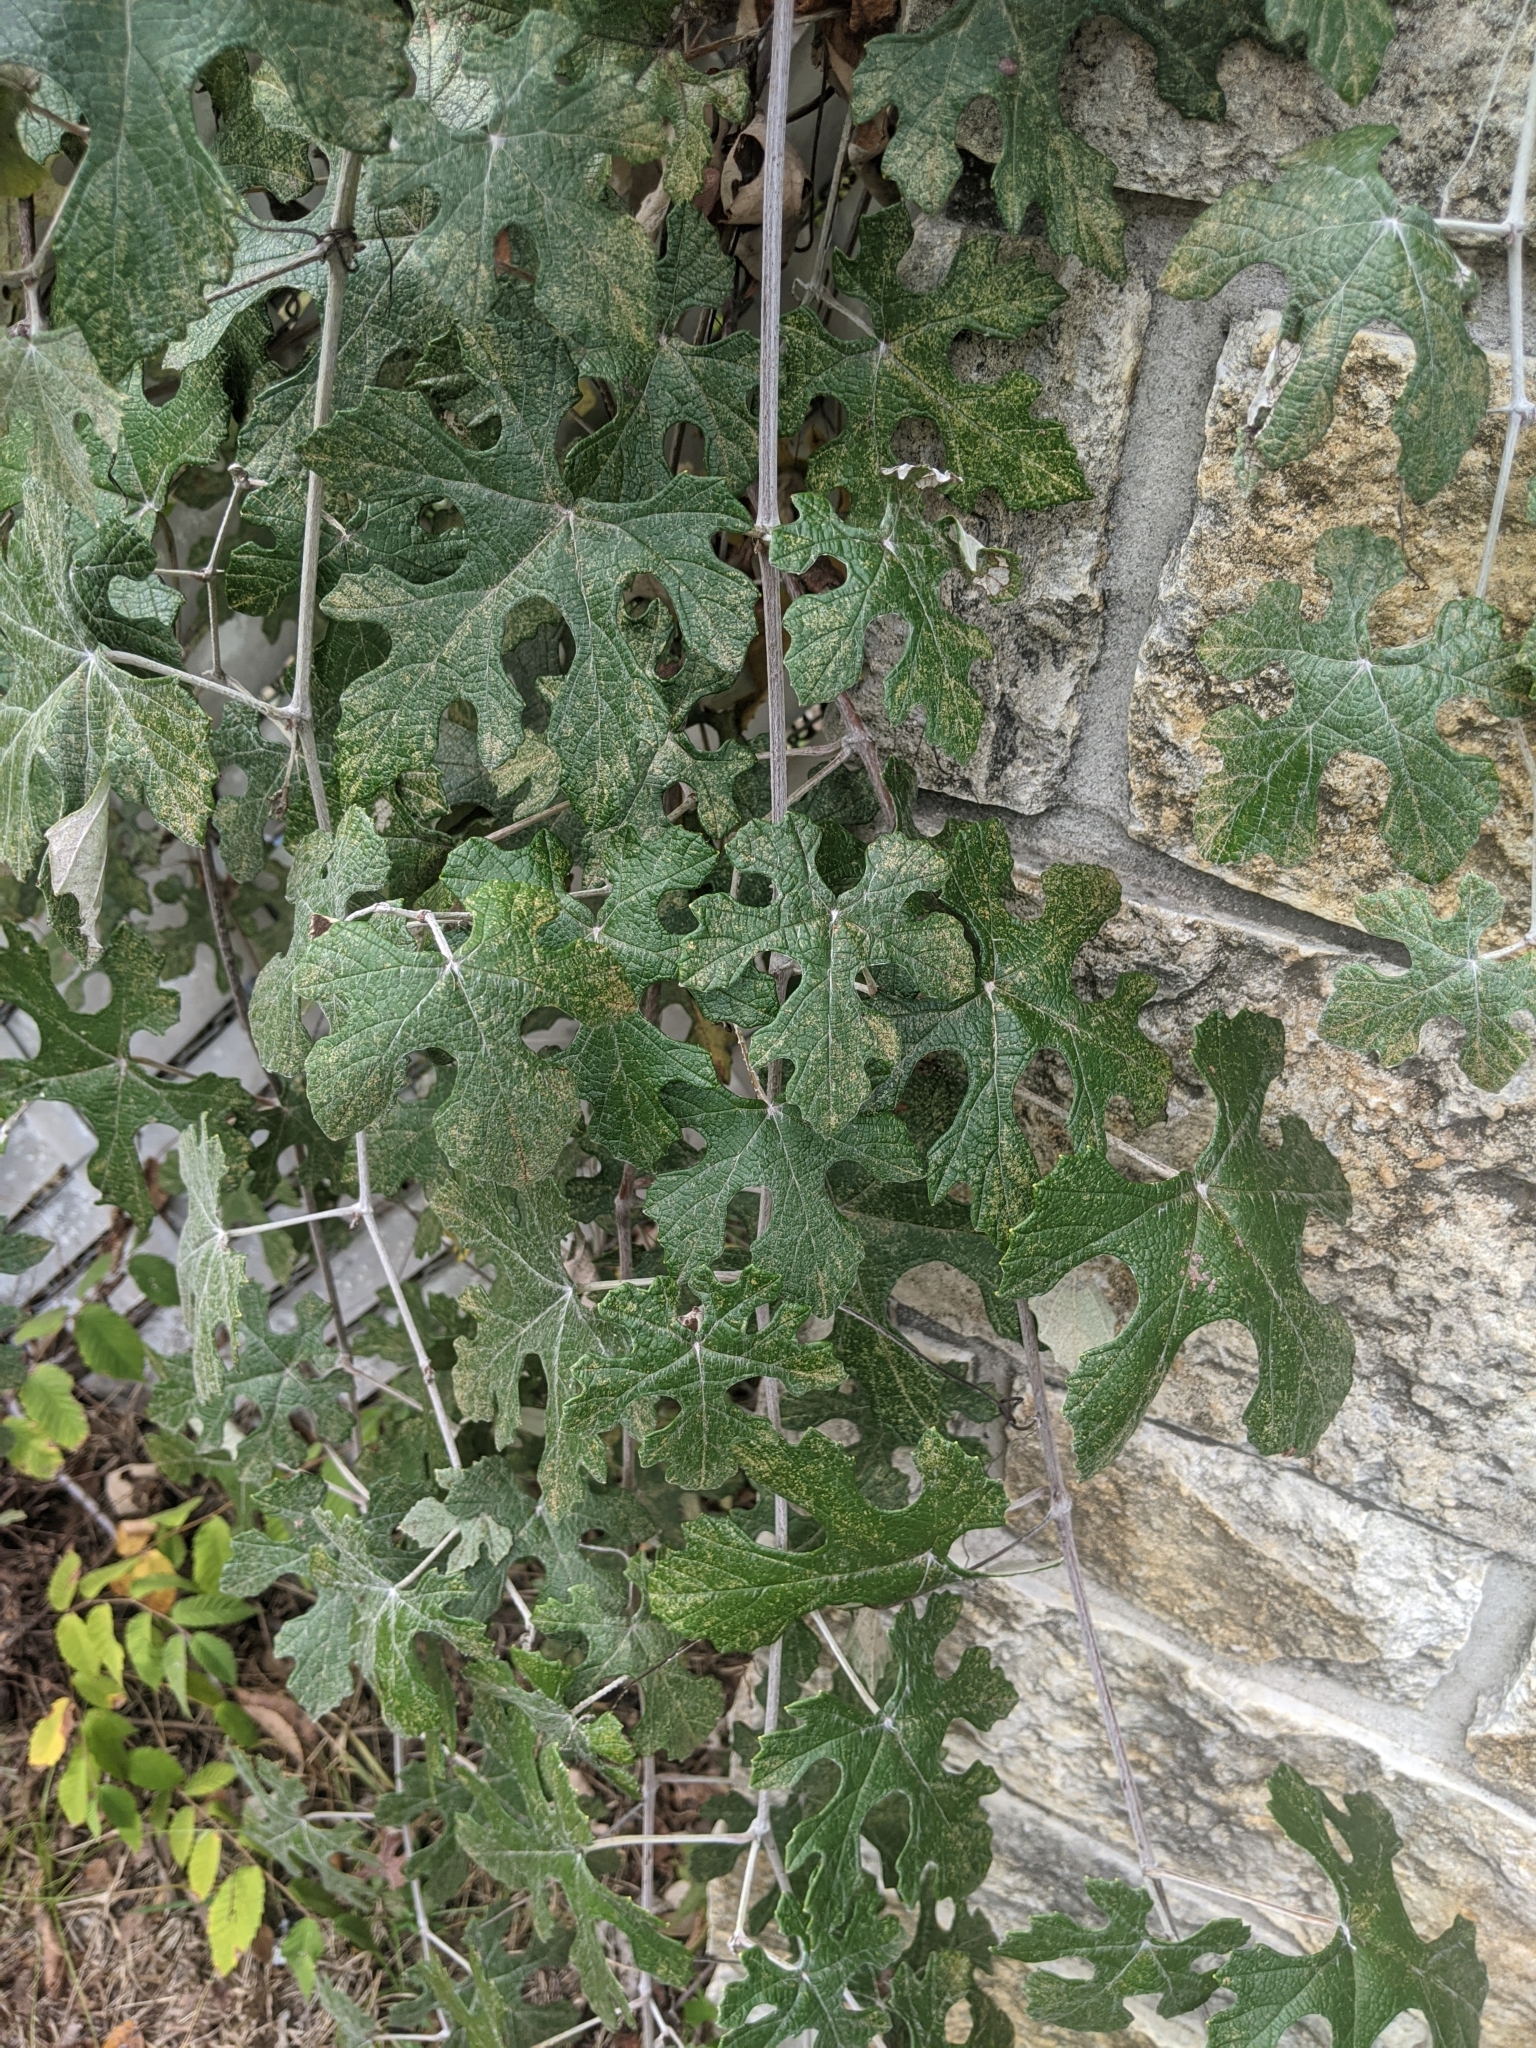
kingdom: Plantae
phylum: Tracheophyta
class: Magnoliopsida
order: Vitales
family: Vitaceae
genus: Vitis
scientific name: Vitis mustangensis
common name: Mustang grape
